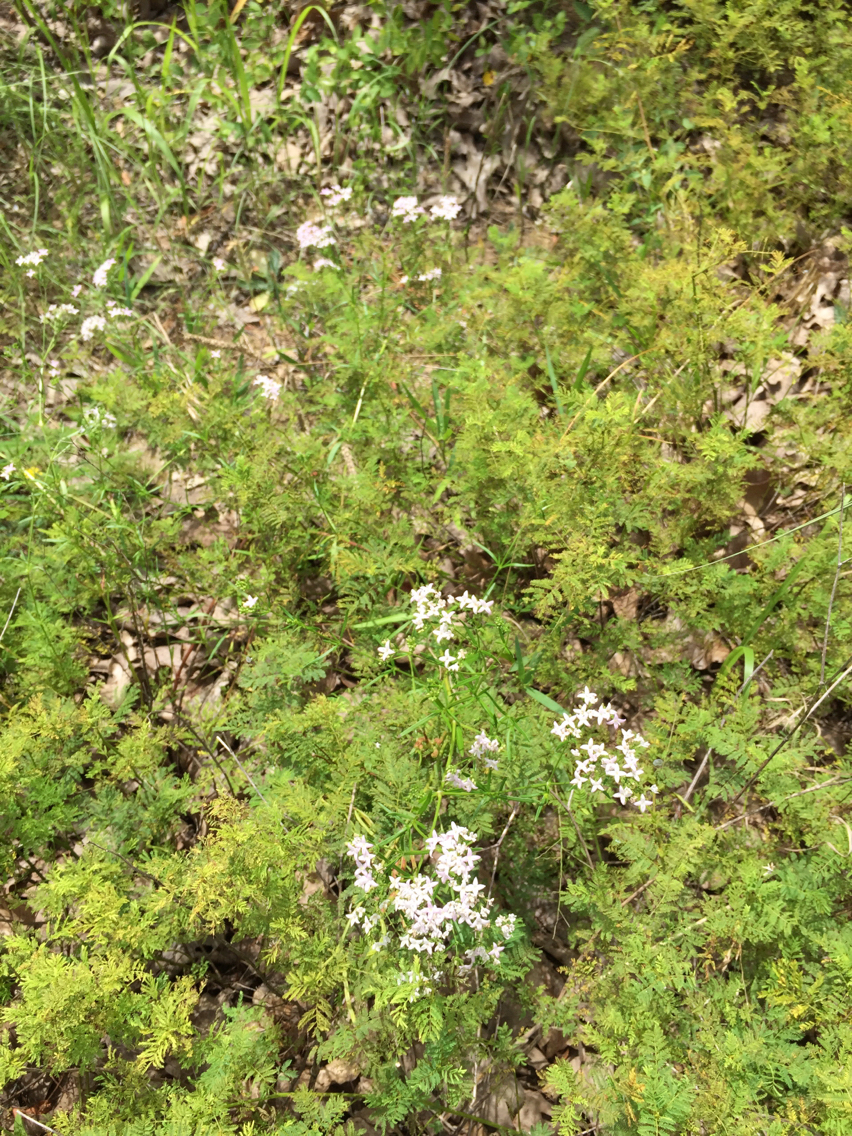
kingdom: Plantae
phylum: Tracheophyta
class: Magnoliopsida
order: Gentianales
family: Rubiaceae
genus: Stenaria
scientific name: Stenaria nigricans
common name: Diamondflowers
